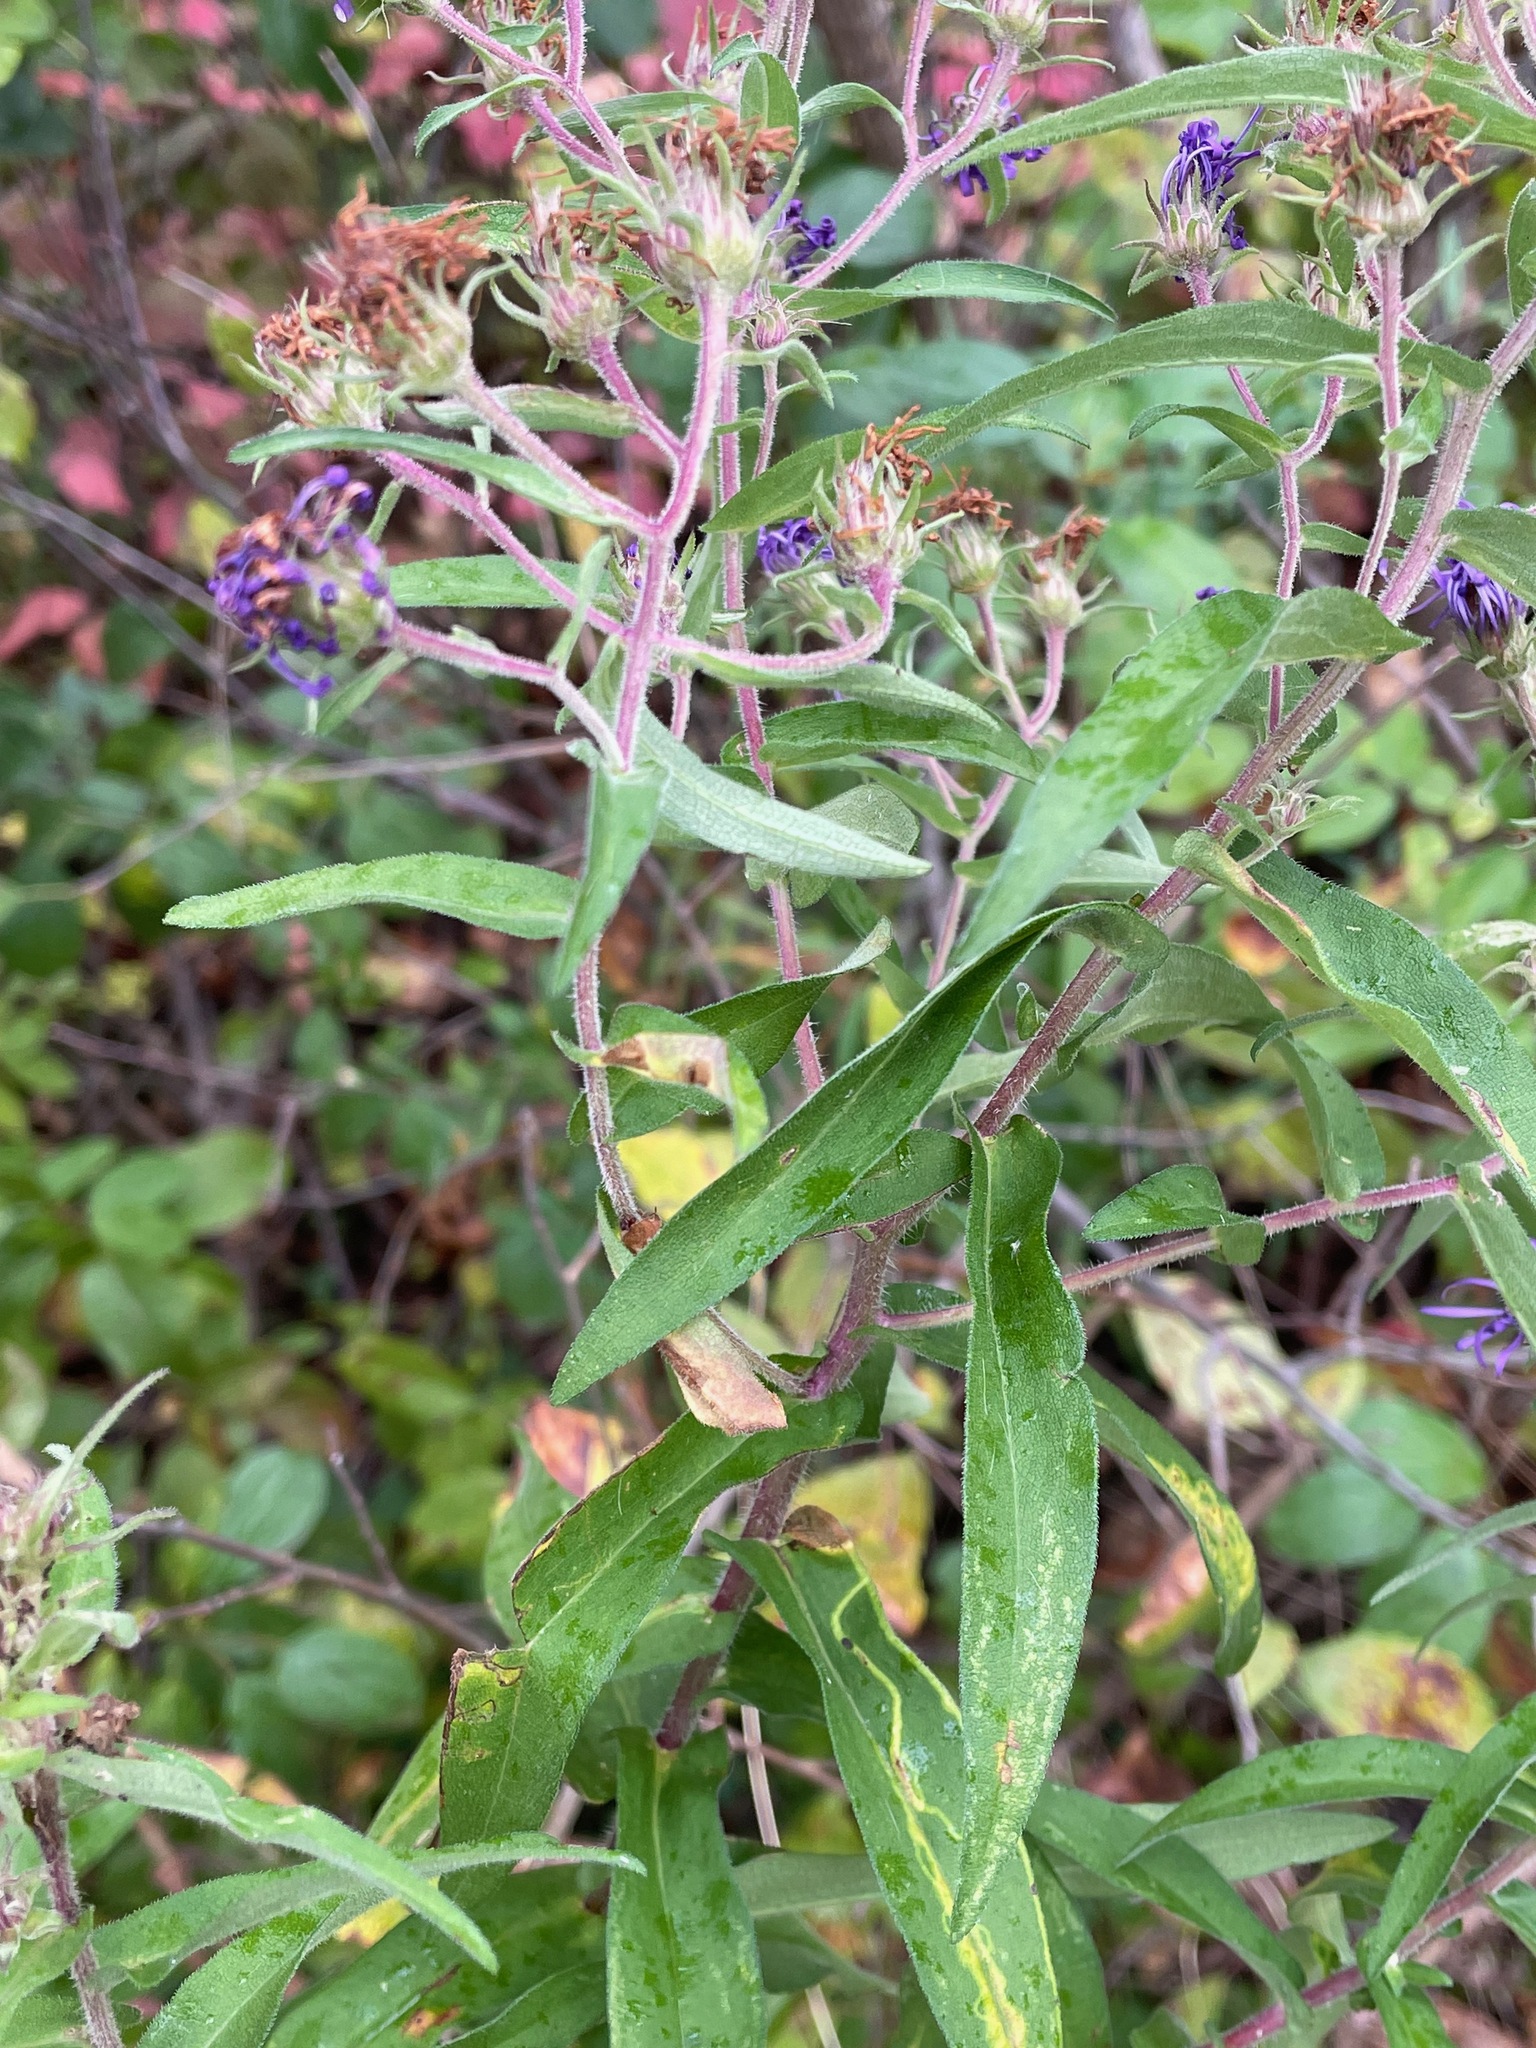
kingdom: Plantae
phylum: Tracheophyta
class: Magnoliopsida
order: Asterales
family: Asteraceae
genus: Symphyotrichum
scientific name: Symphyotrichum novae-angliae
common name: Michaelmas daisy
